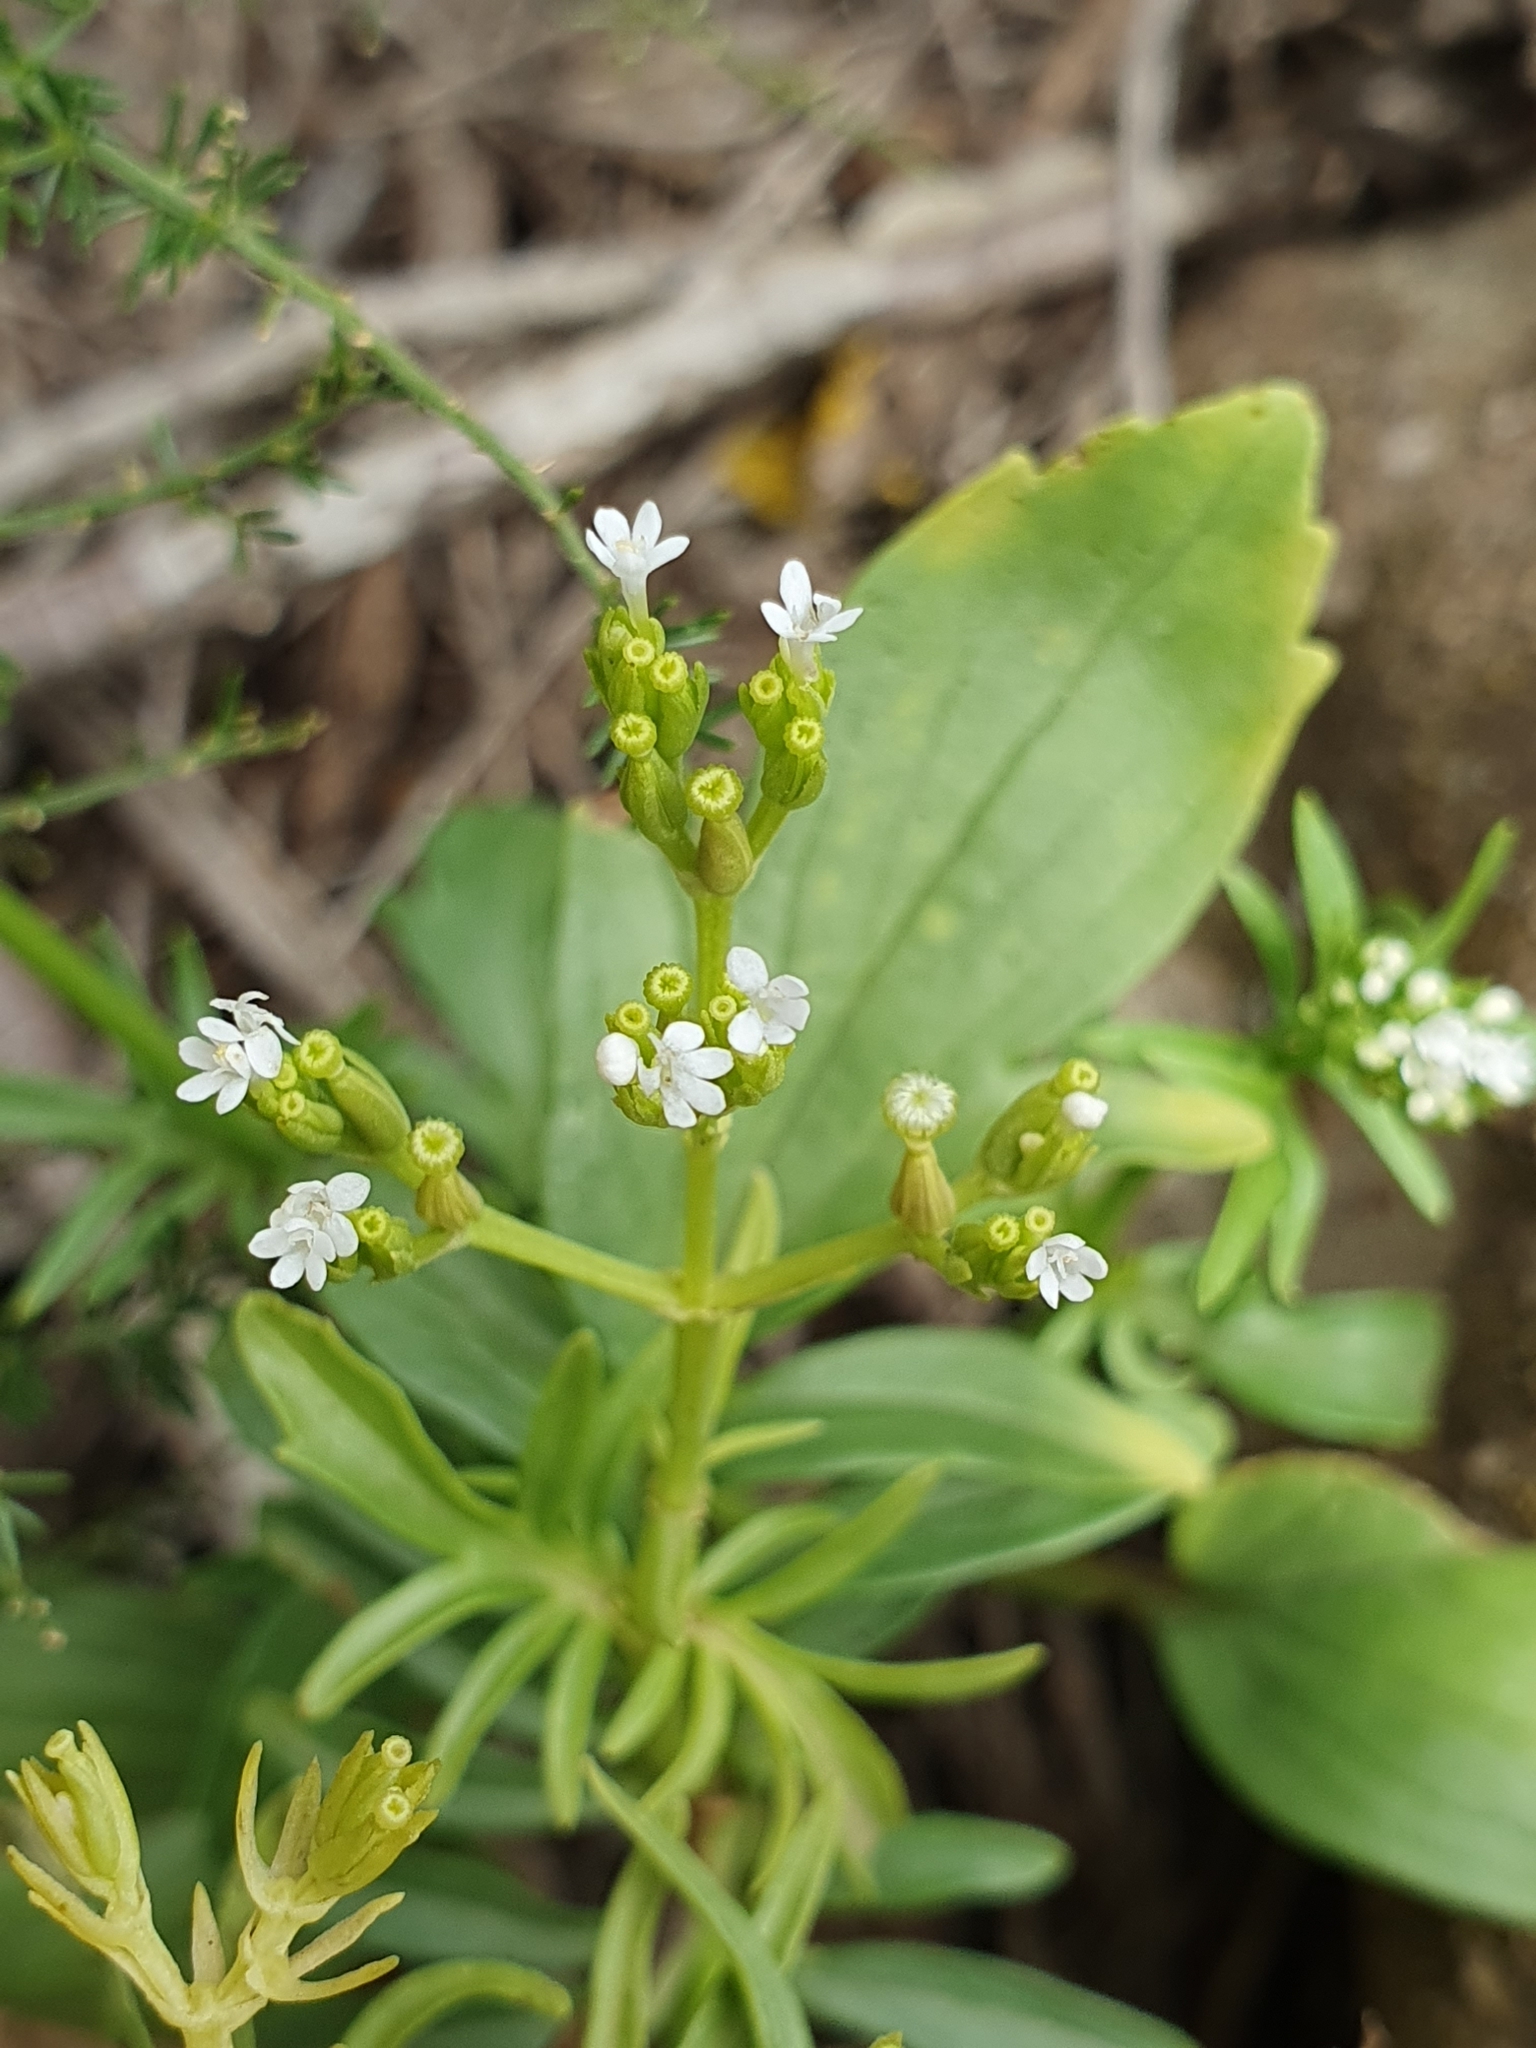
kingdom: Plantae
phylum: Tracheophyta
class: Magnoliopsida
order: Dipsacales
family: Caprifoliaceae
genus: Centranthus
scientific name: Centranthus calcitrapae
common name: Annual valerian
